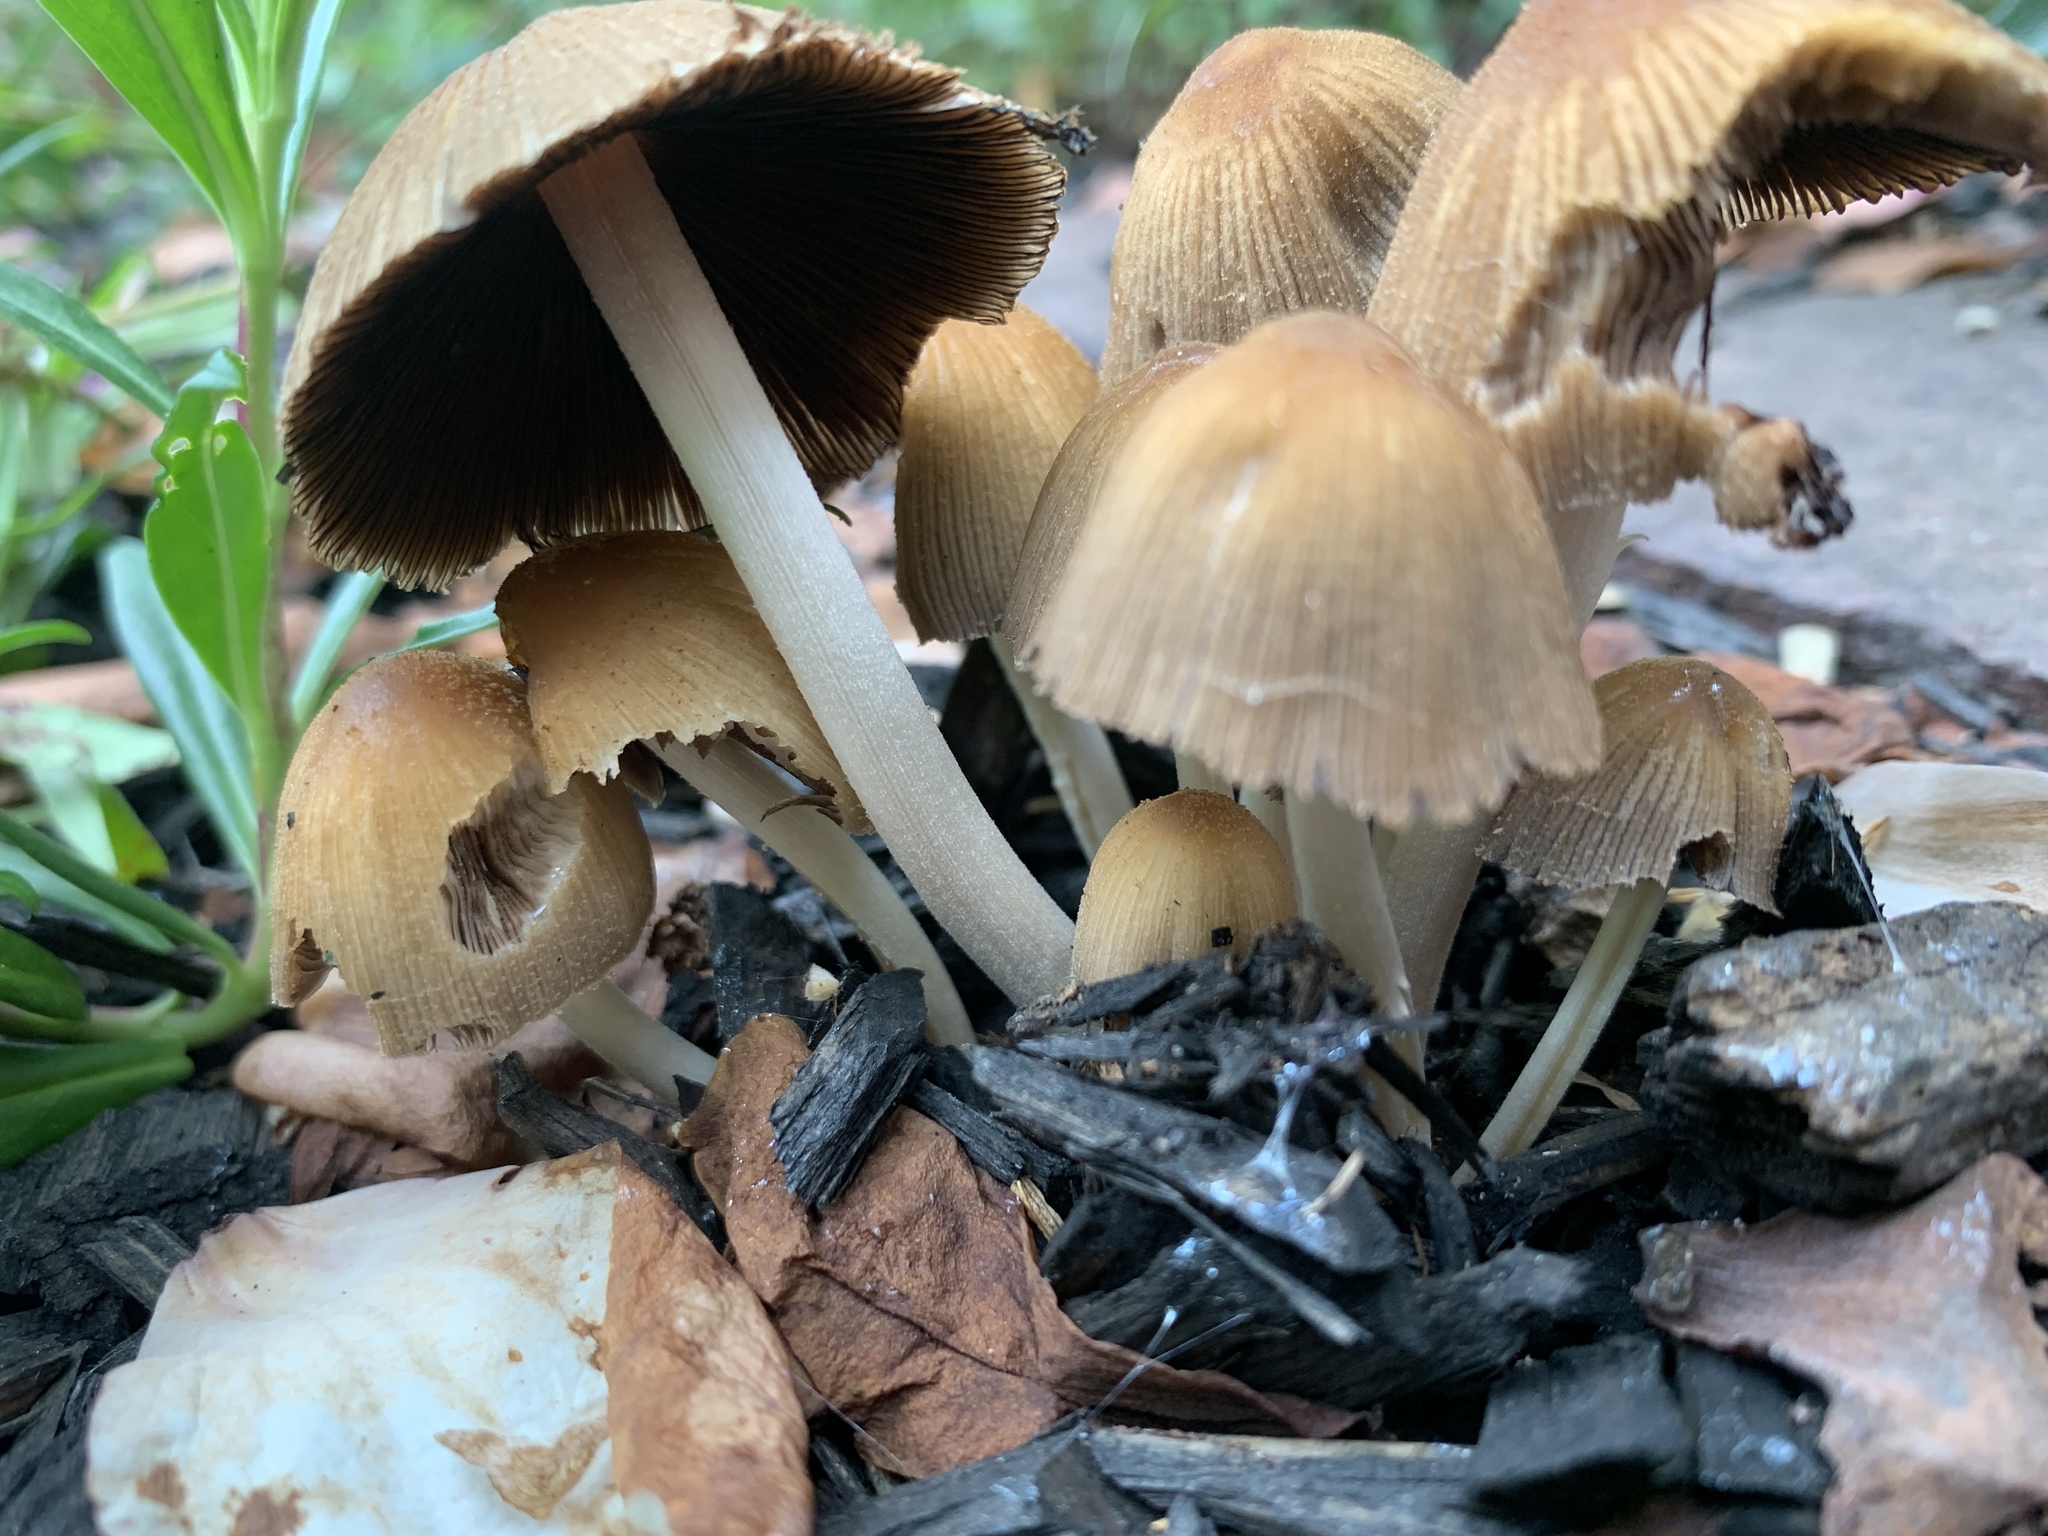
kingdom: Fungi
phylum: Basidiomycota
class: Agaricomycetes
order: Agaricales
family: Psathyrellaceae
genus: Coprinellus
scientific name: Coprinellus micaceus
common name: Glistening ink-cap
